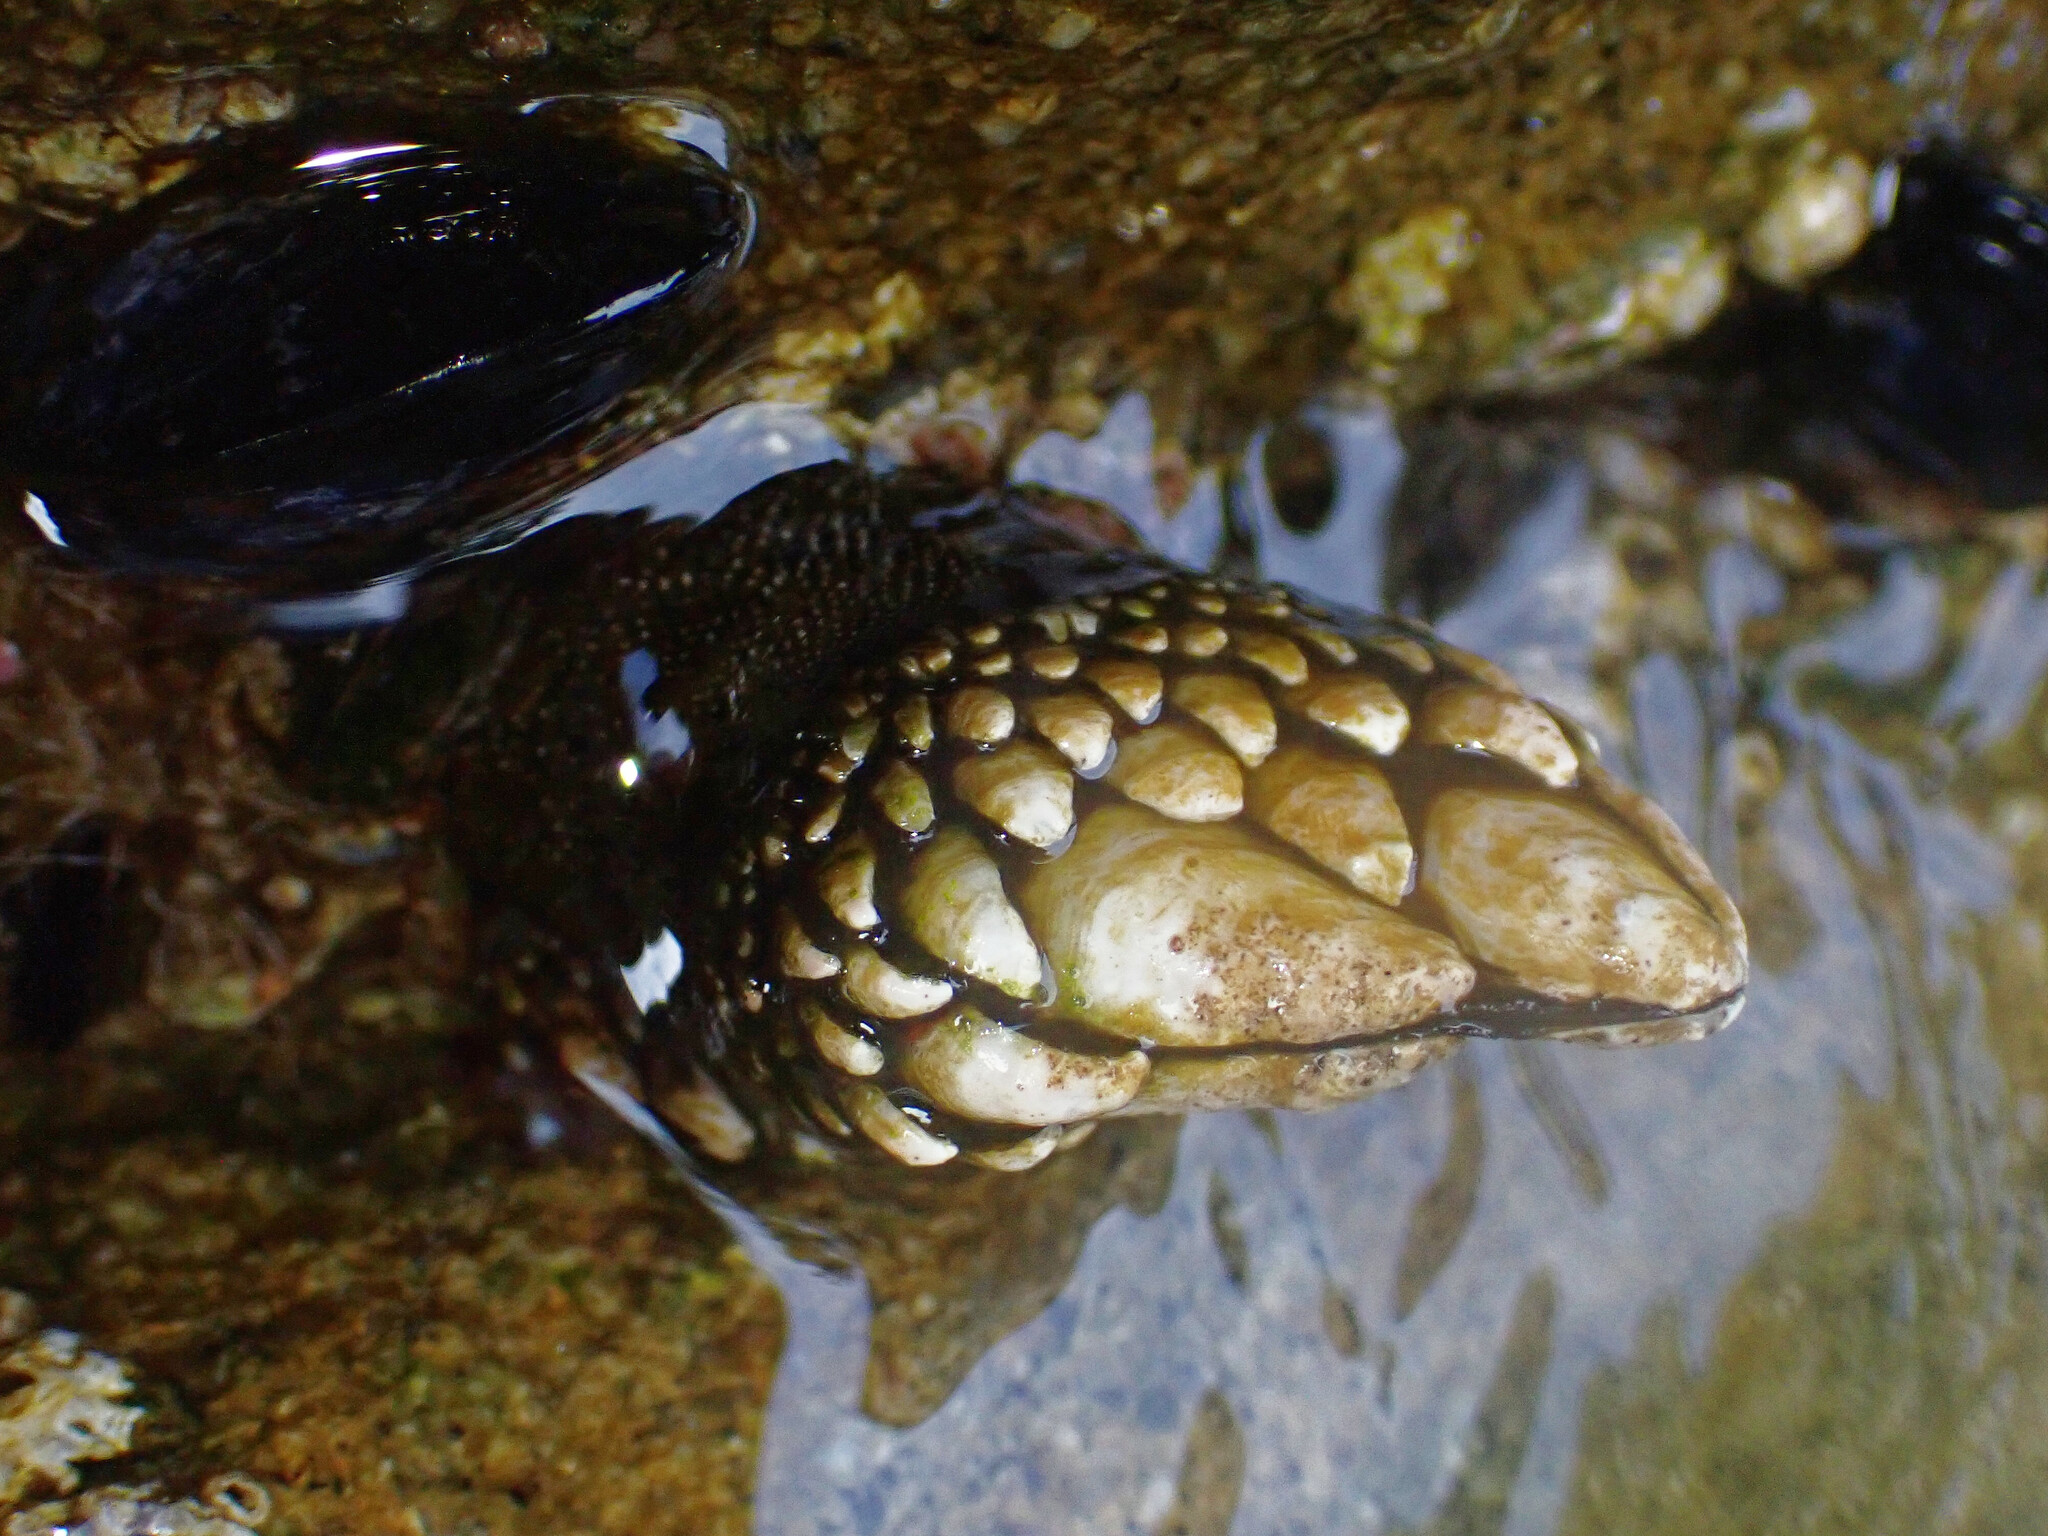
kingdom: Animalia
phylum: Arthropoda
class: Maxillopoda
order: Pedunculata
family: Pollicipedidae
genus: Pollicipes
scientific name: Pollicipes polymerus
